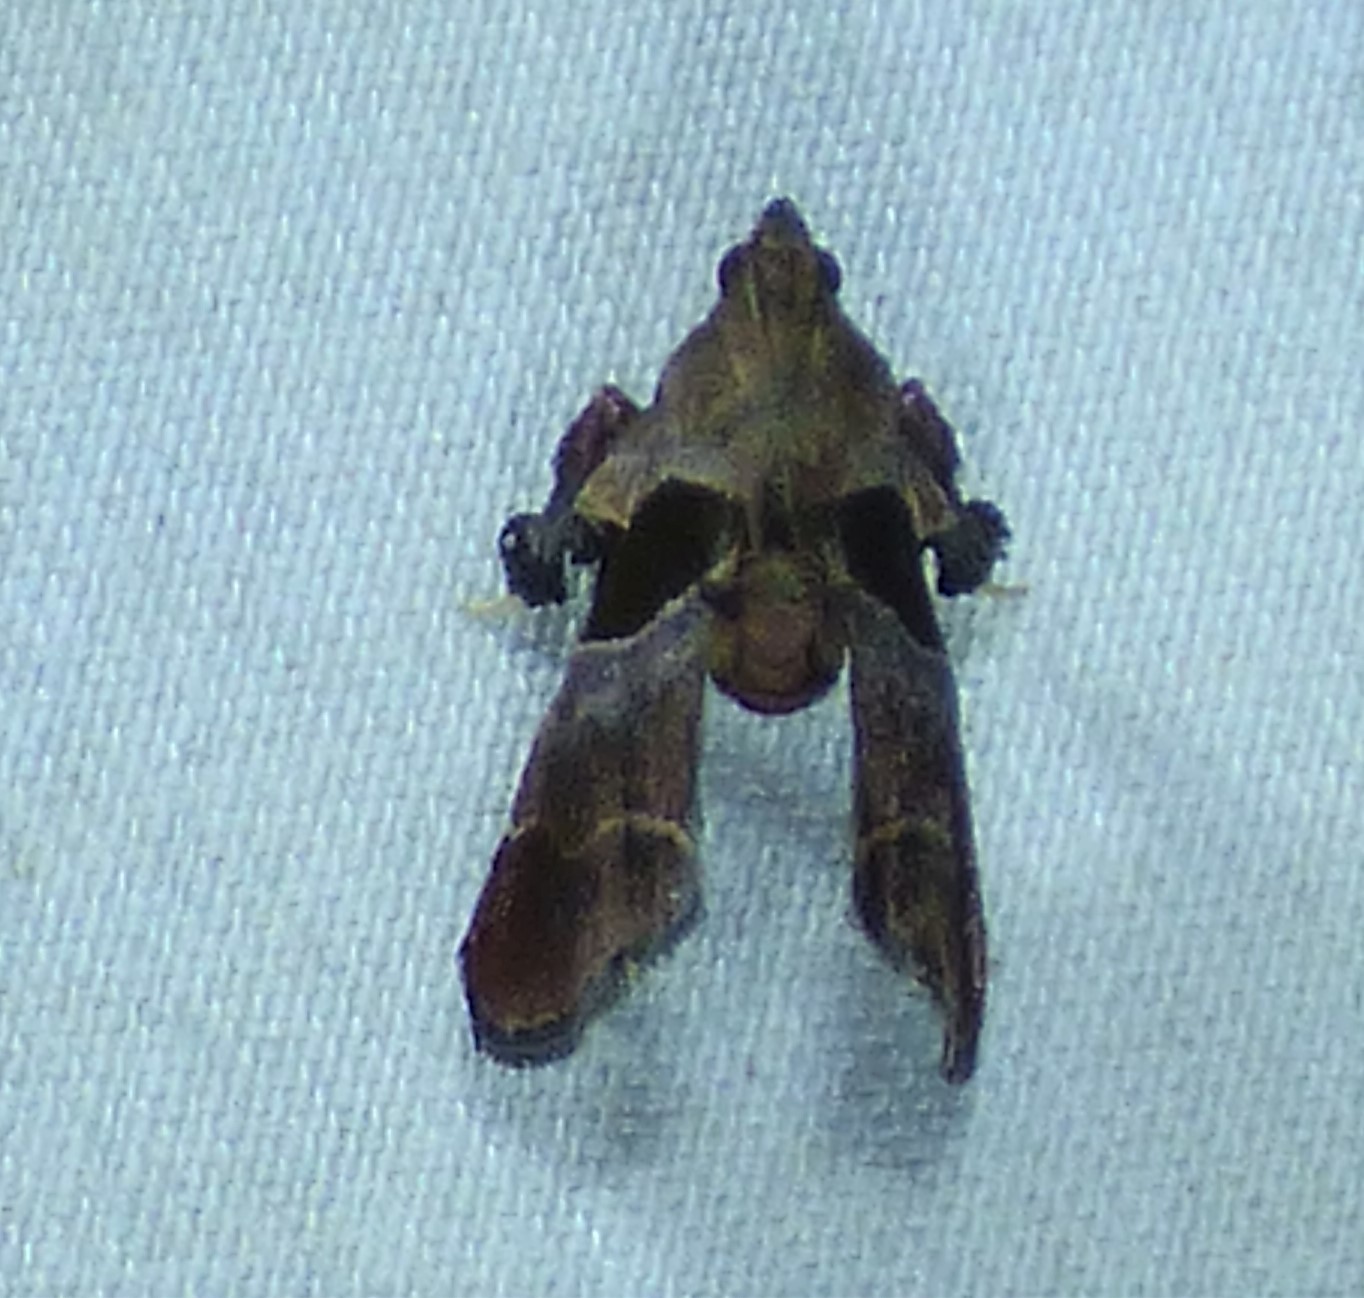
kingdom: Animalia
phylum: Arthropoda
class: Insecta
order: Lepidoptera
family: Pyralidae
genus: Tosale
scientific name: Tosale oviplagalis
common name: Dimorphic tosale moth
